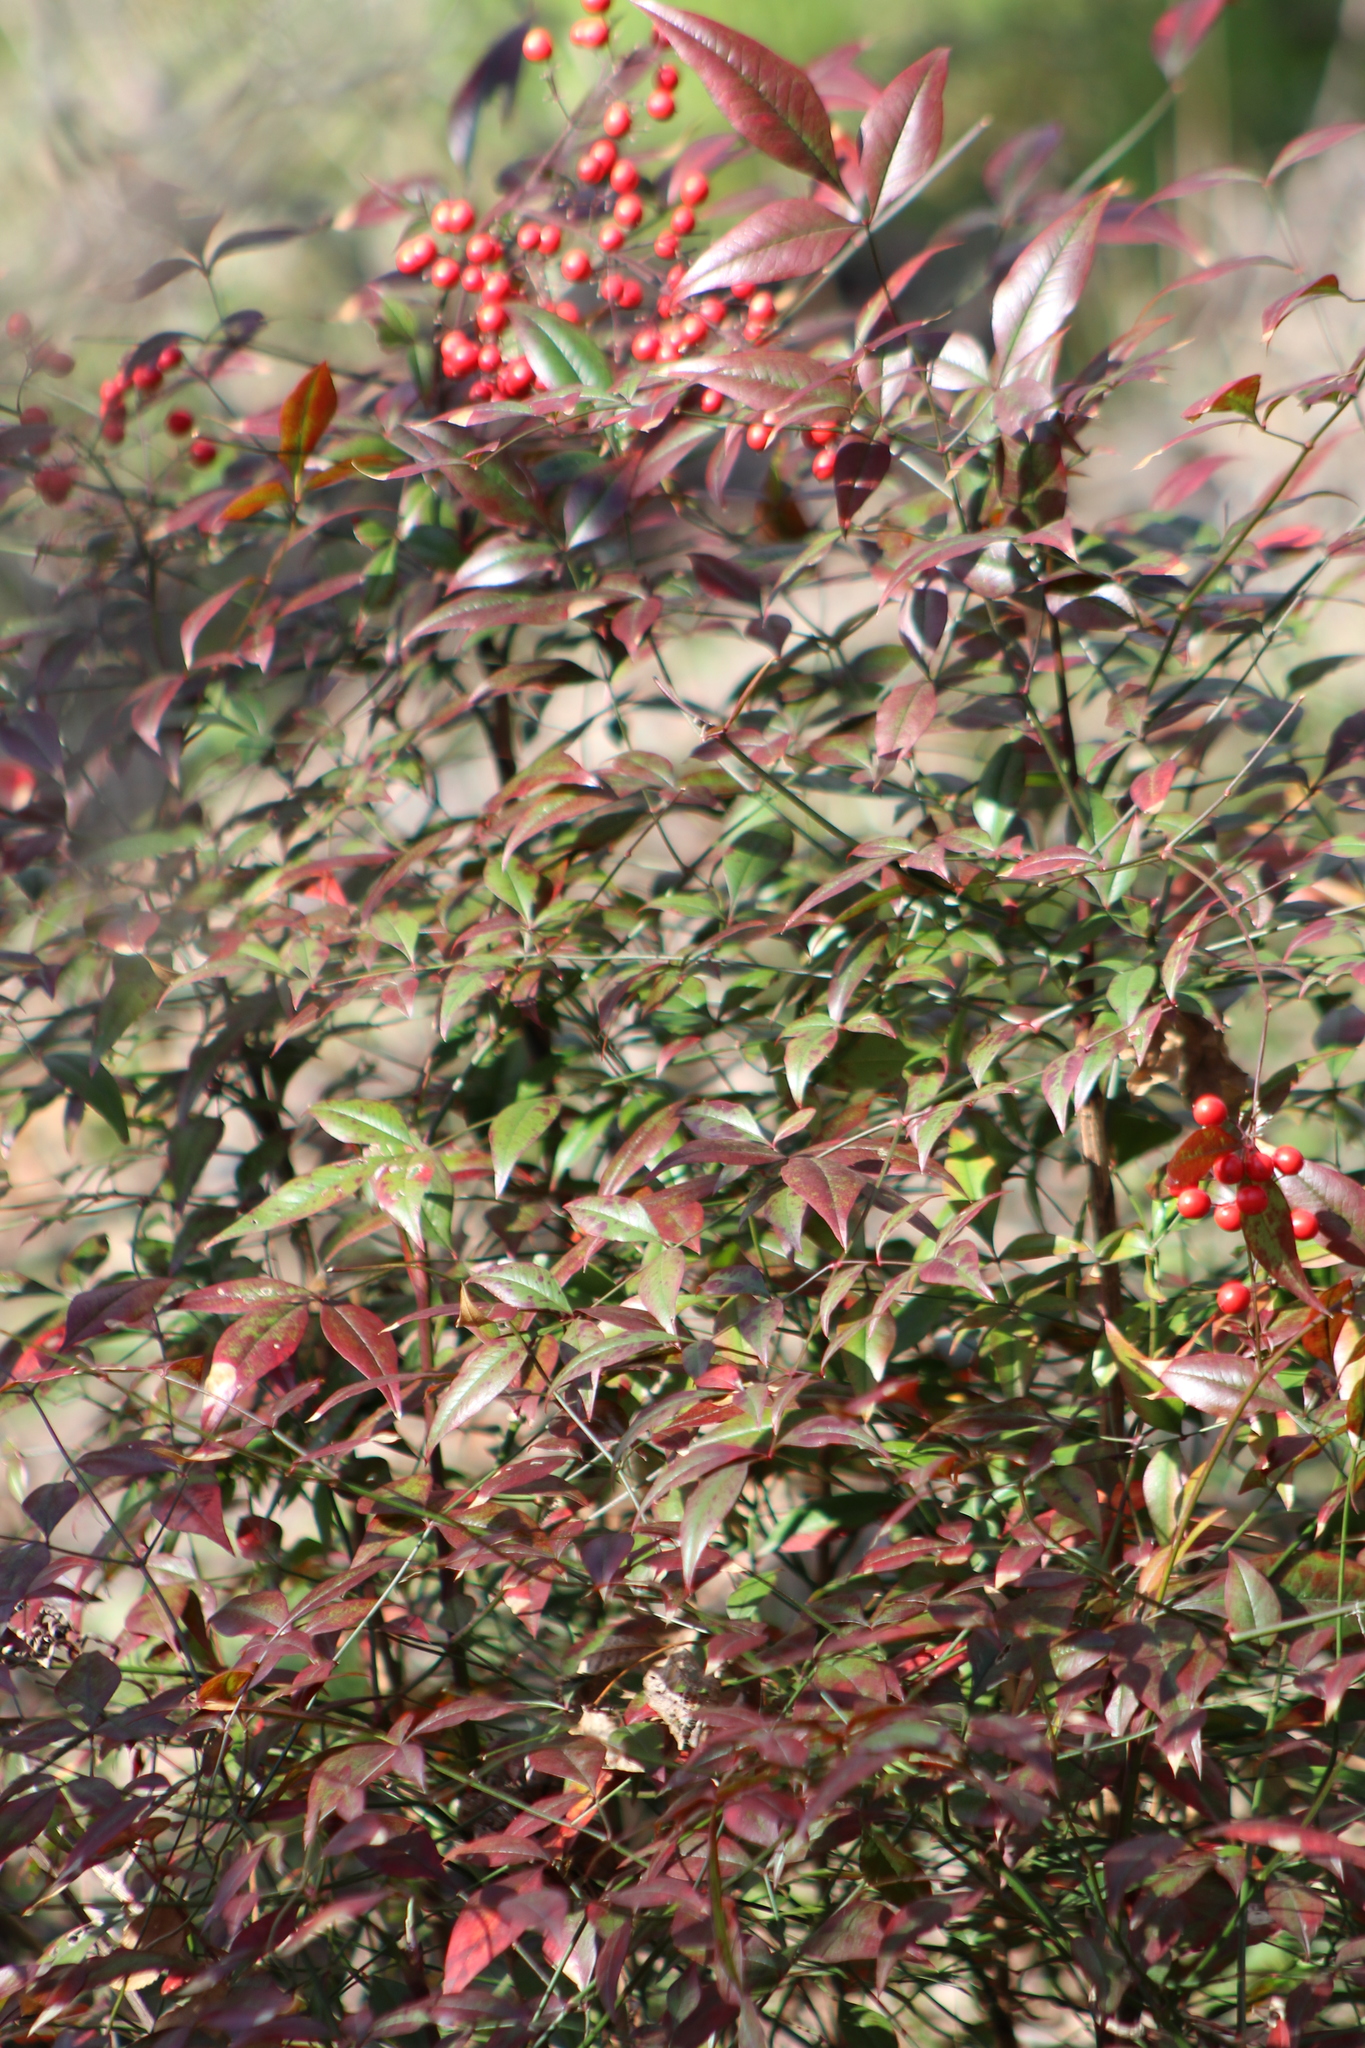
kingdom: Plantae
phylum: Tracheophyta
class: Magnoliopsida
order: Ranunculales
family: Berberidaceae
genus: Nandina
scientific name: Nandina domestica
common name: Sacred bamboo
